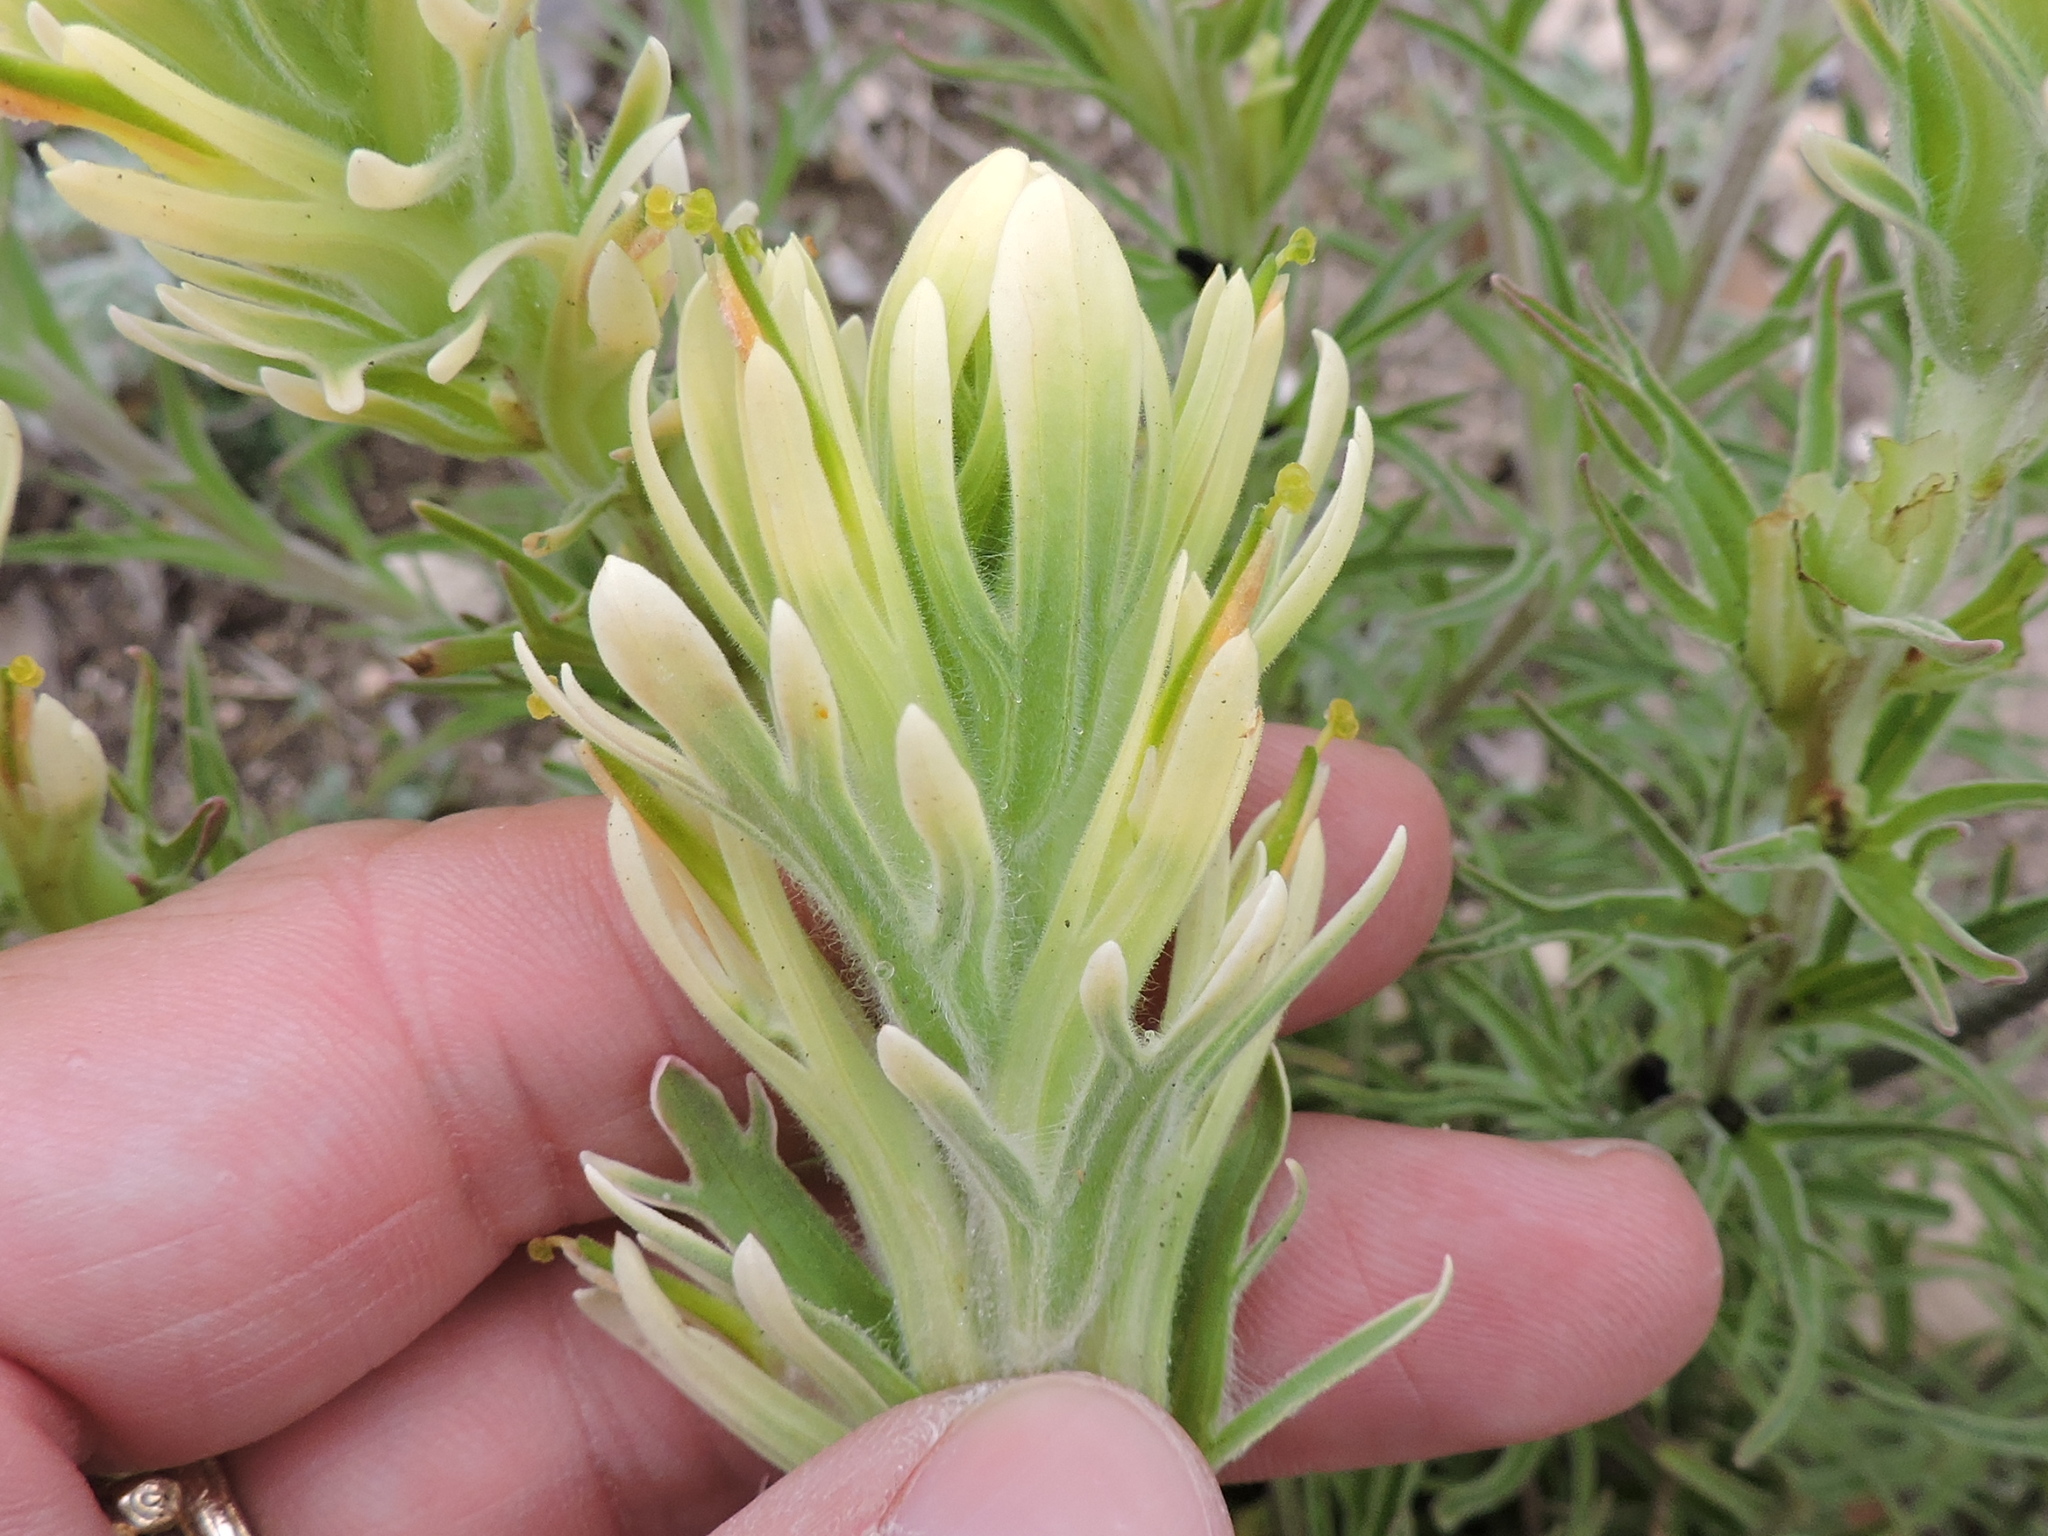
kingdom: Plantae
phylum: Tracheophyta
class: Magnoliopsida
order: Lamiales
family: Orobanchaceae
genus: Castilleja
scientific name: Castilleja citrina
